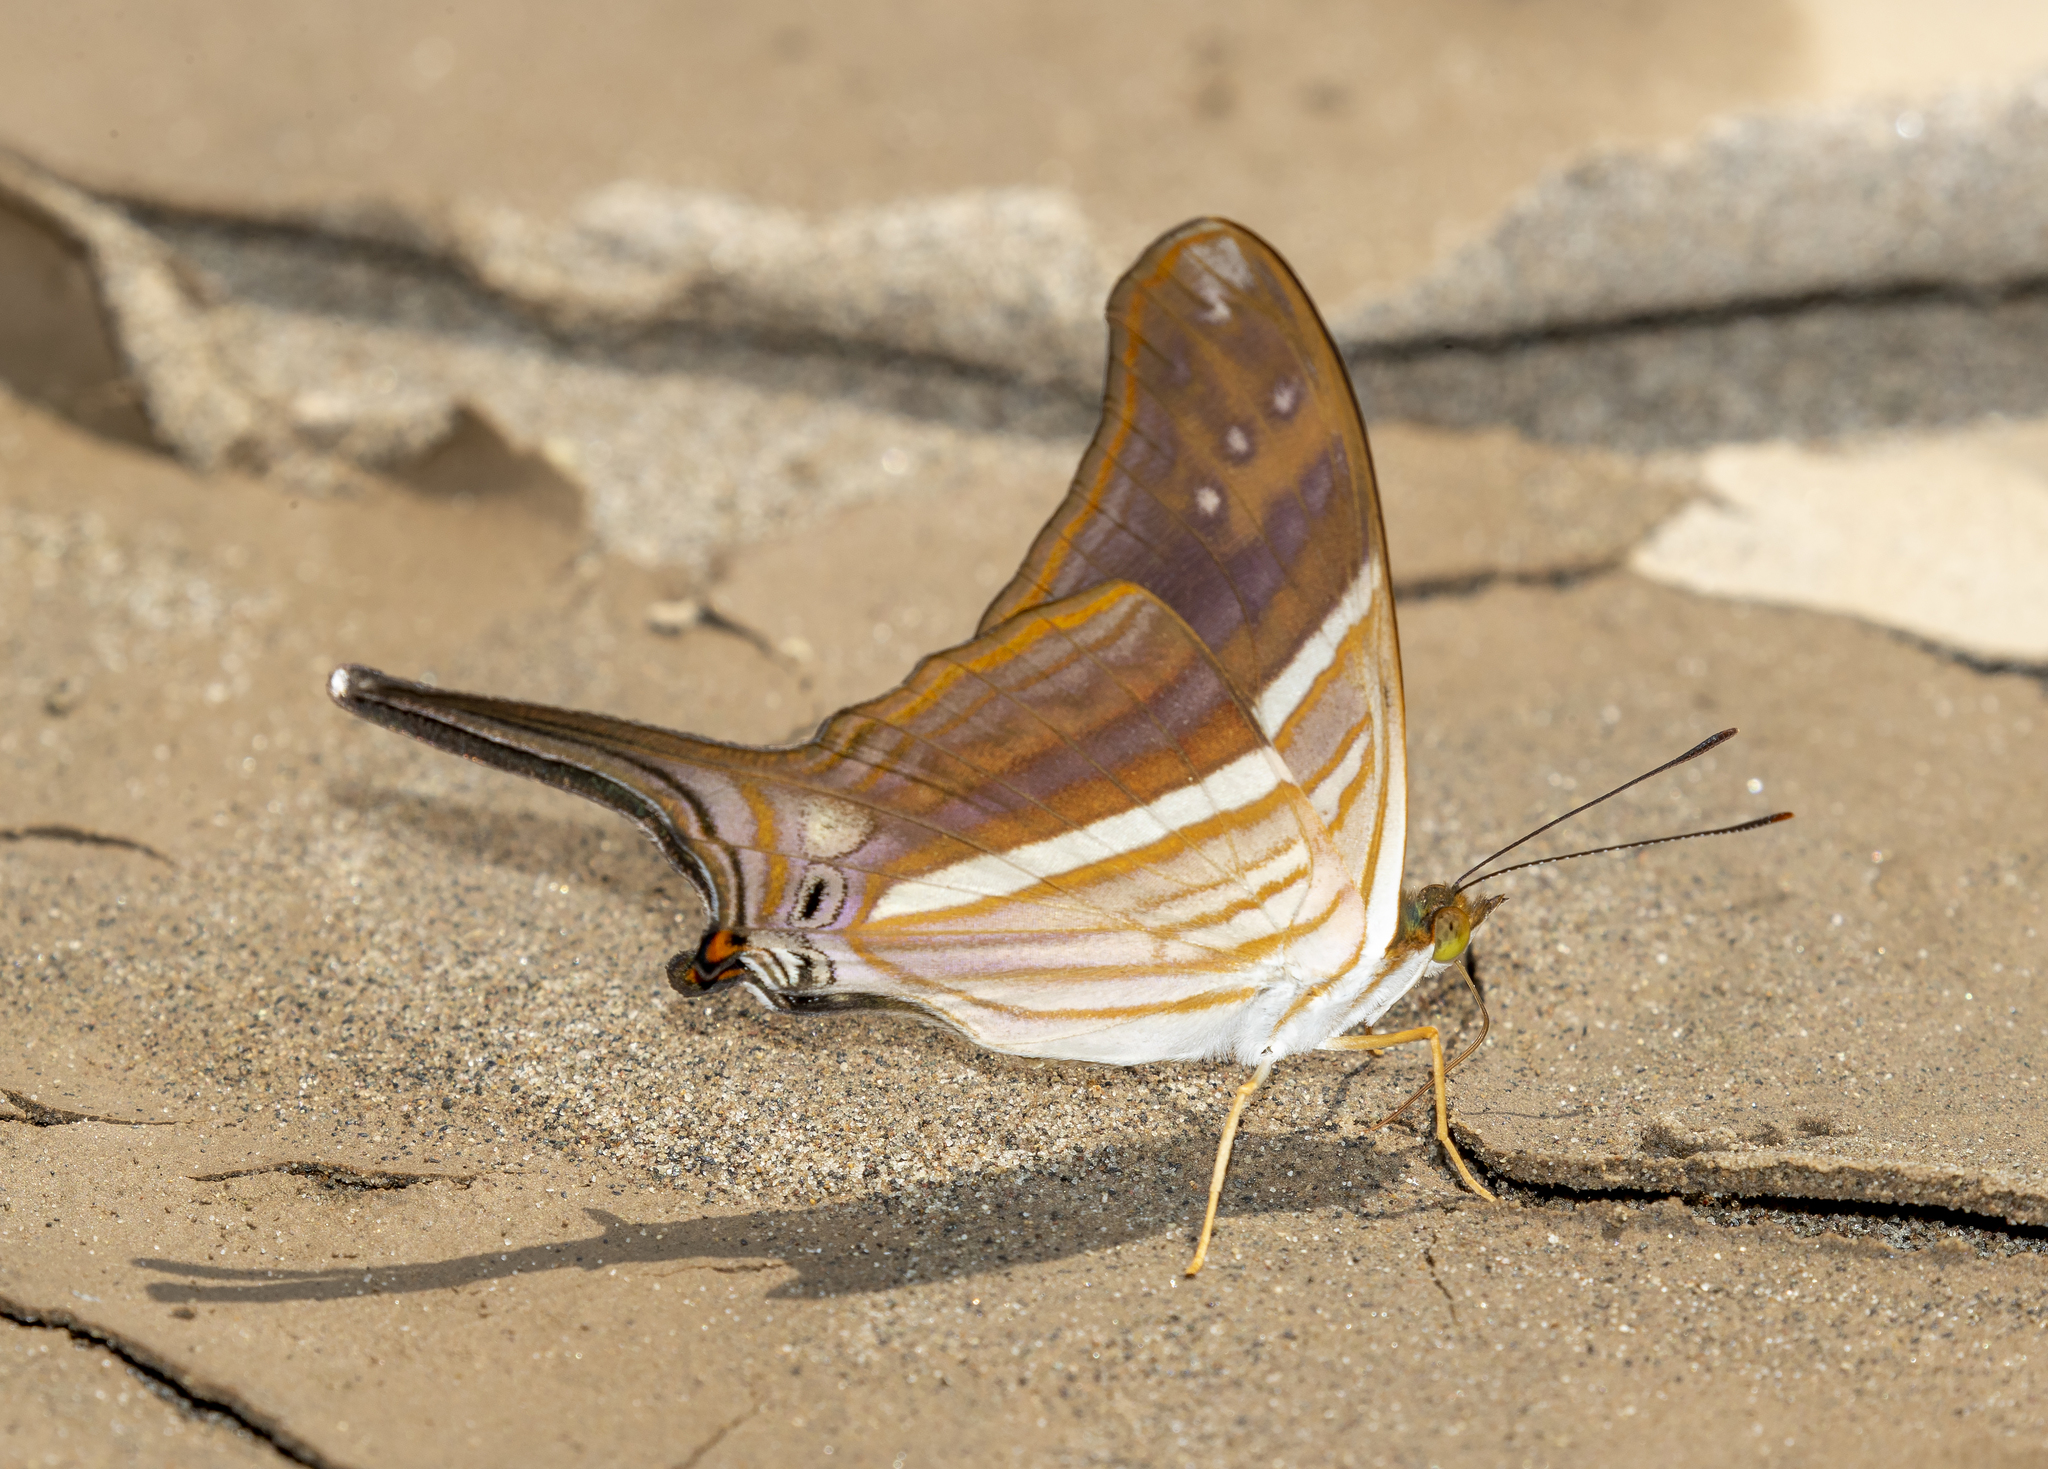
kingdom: Animalia
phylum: Arthropoda
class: Insecta
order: Lepidoptera
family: Nymphalidae
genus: Marpesia
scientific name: Marpesia chiron
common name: Many-banded daggerwing
